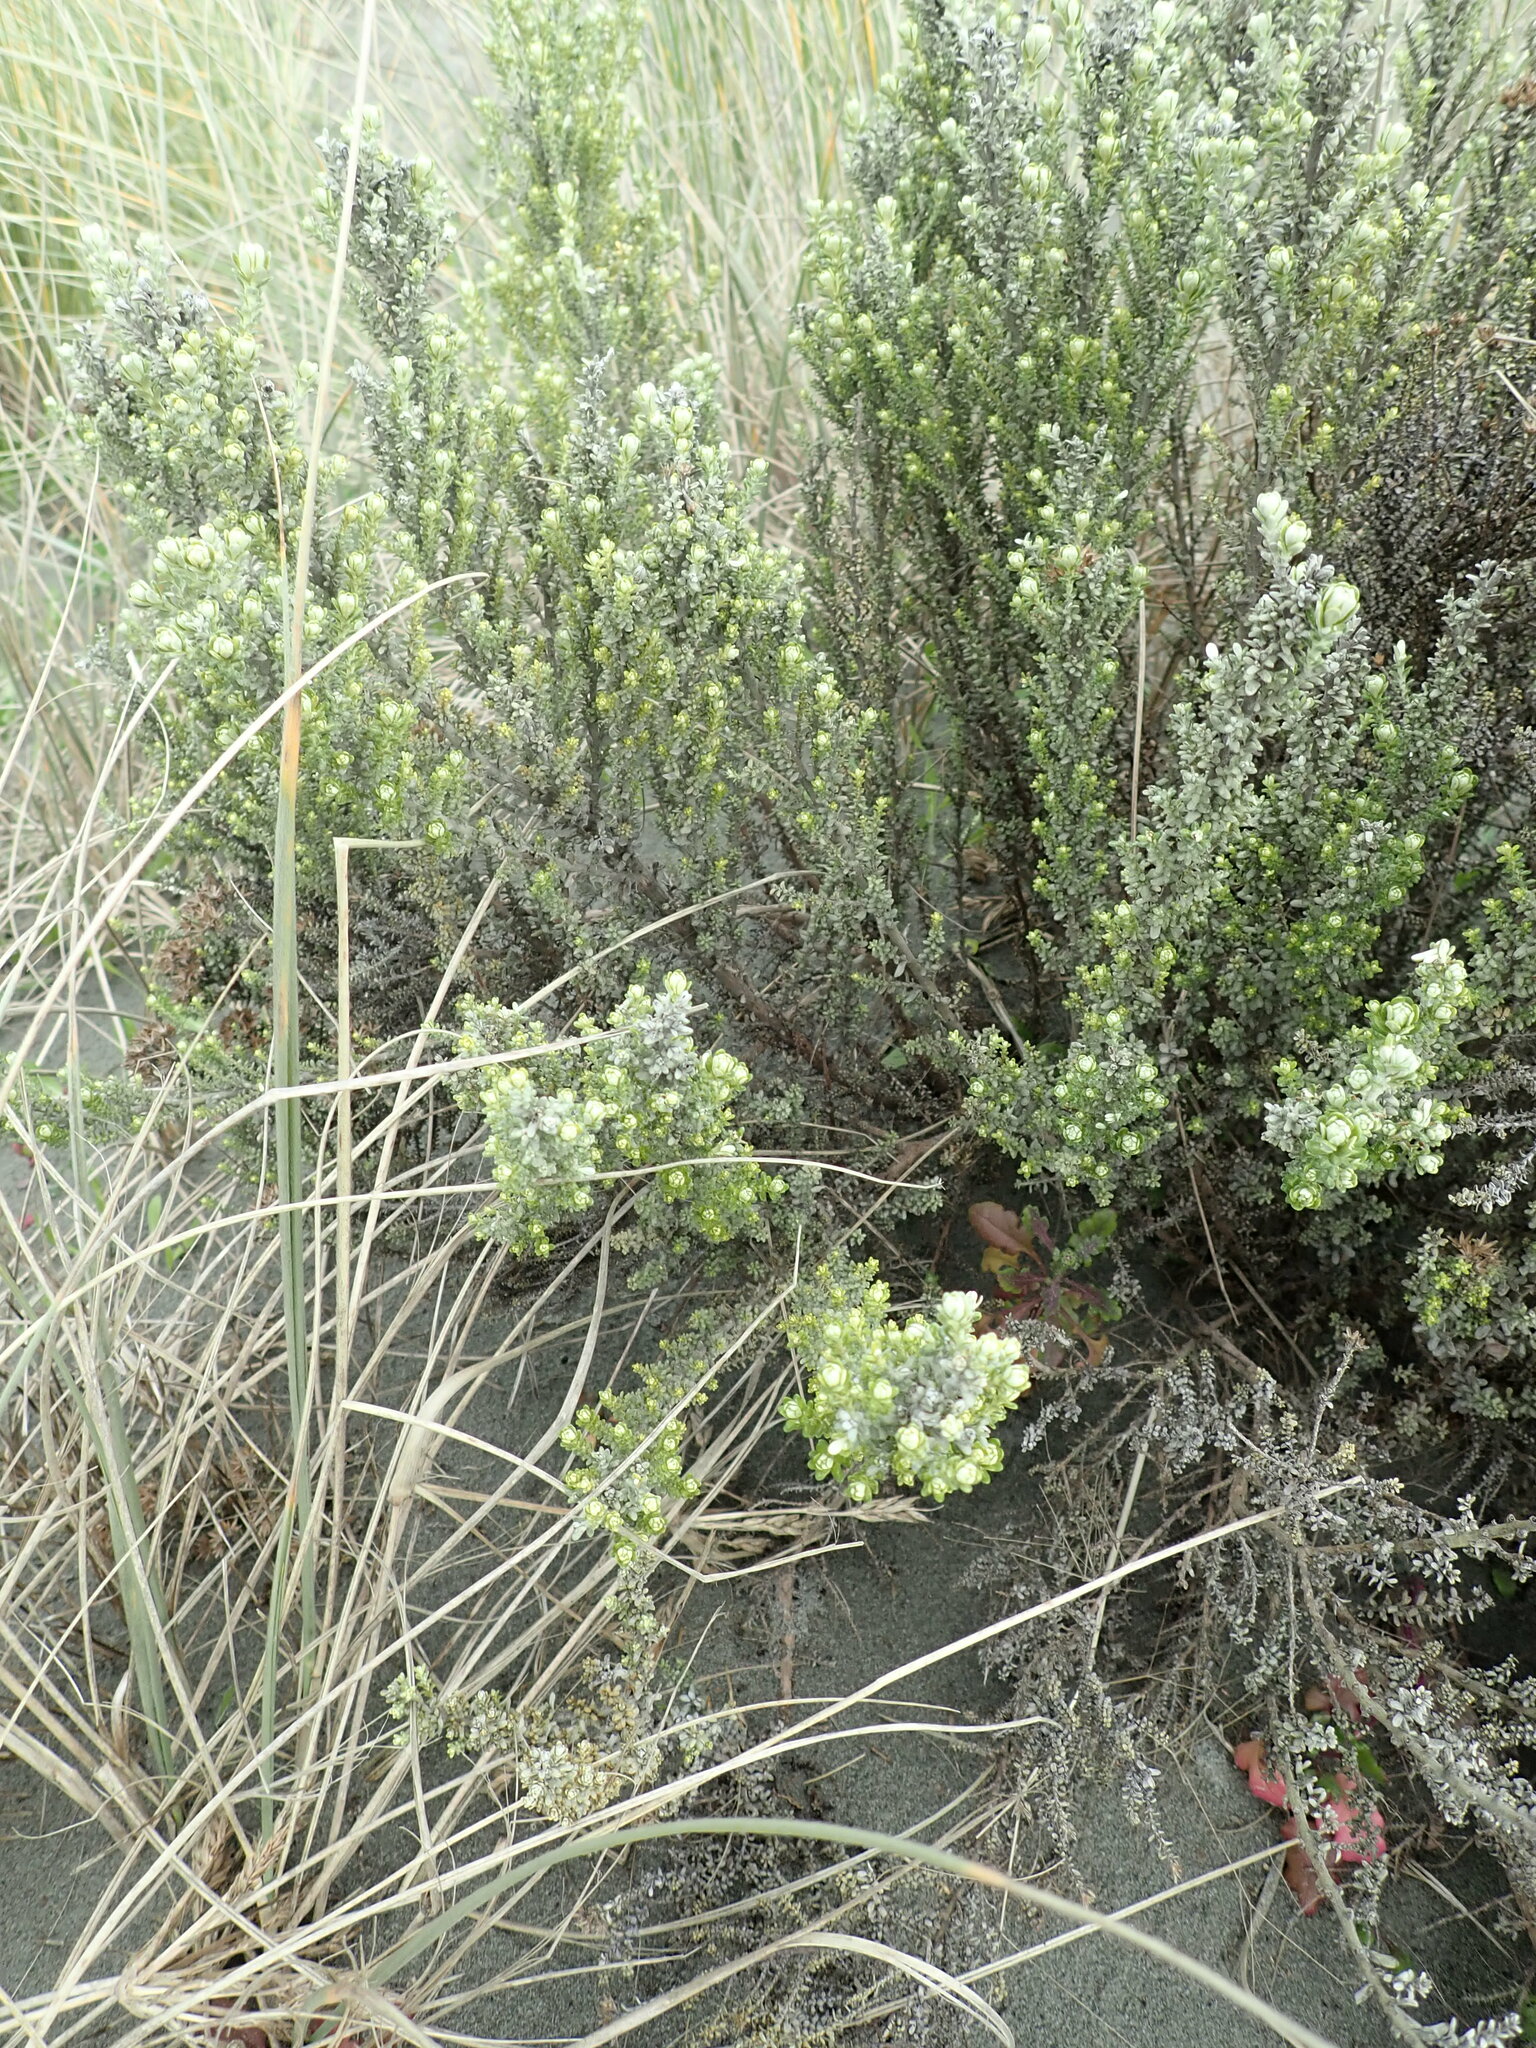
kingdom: Plantae
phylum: Tracheophyta
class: Magnoliopsida
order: Asterales
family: Asteraceae
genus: Ozothamnus
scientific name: Ozothamnus leptophyllus
